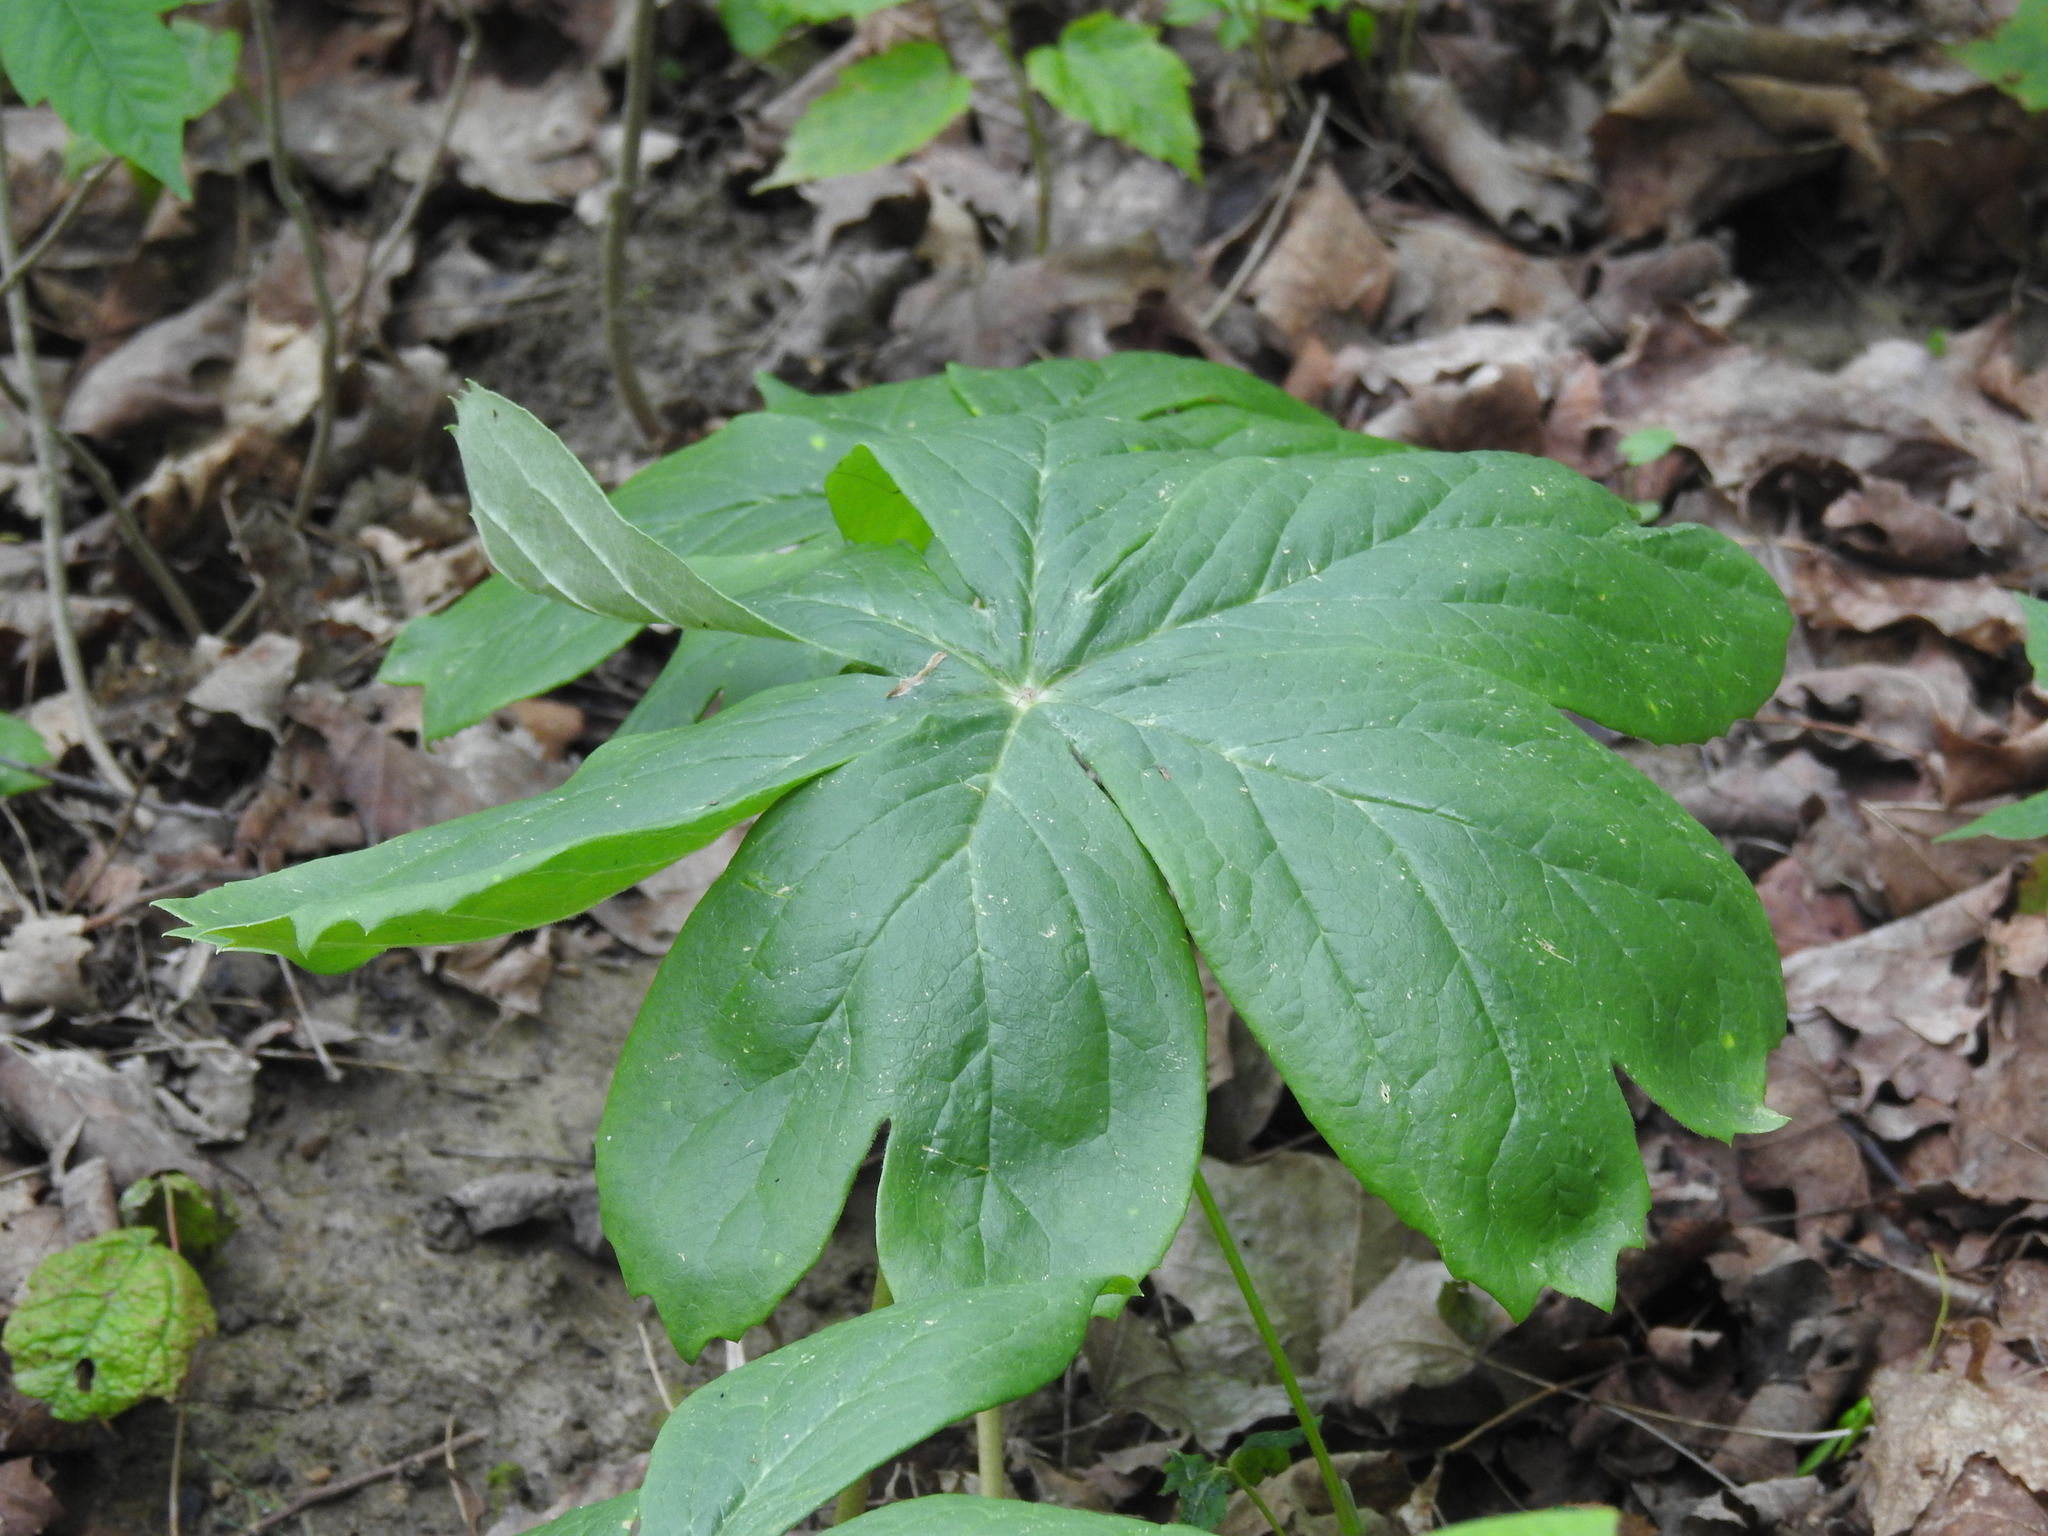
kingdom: Plantae
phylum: Tracheophyta
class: Magnoliopsida
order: Ranunculales
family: Berberidaceae
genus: Podophyllum
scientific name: Podophyllum peltatum
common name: Wild mandrake
